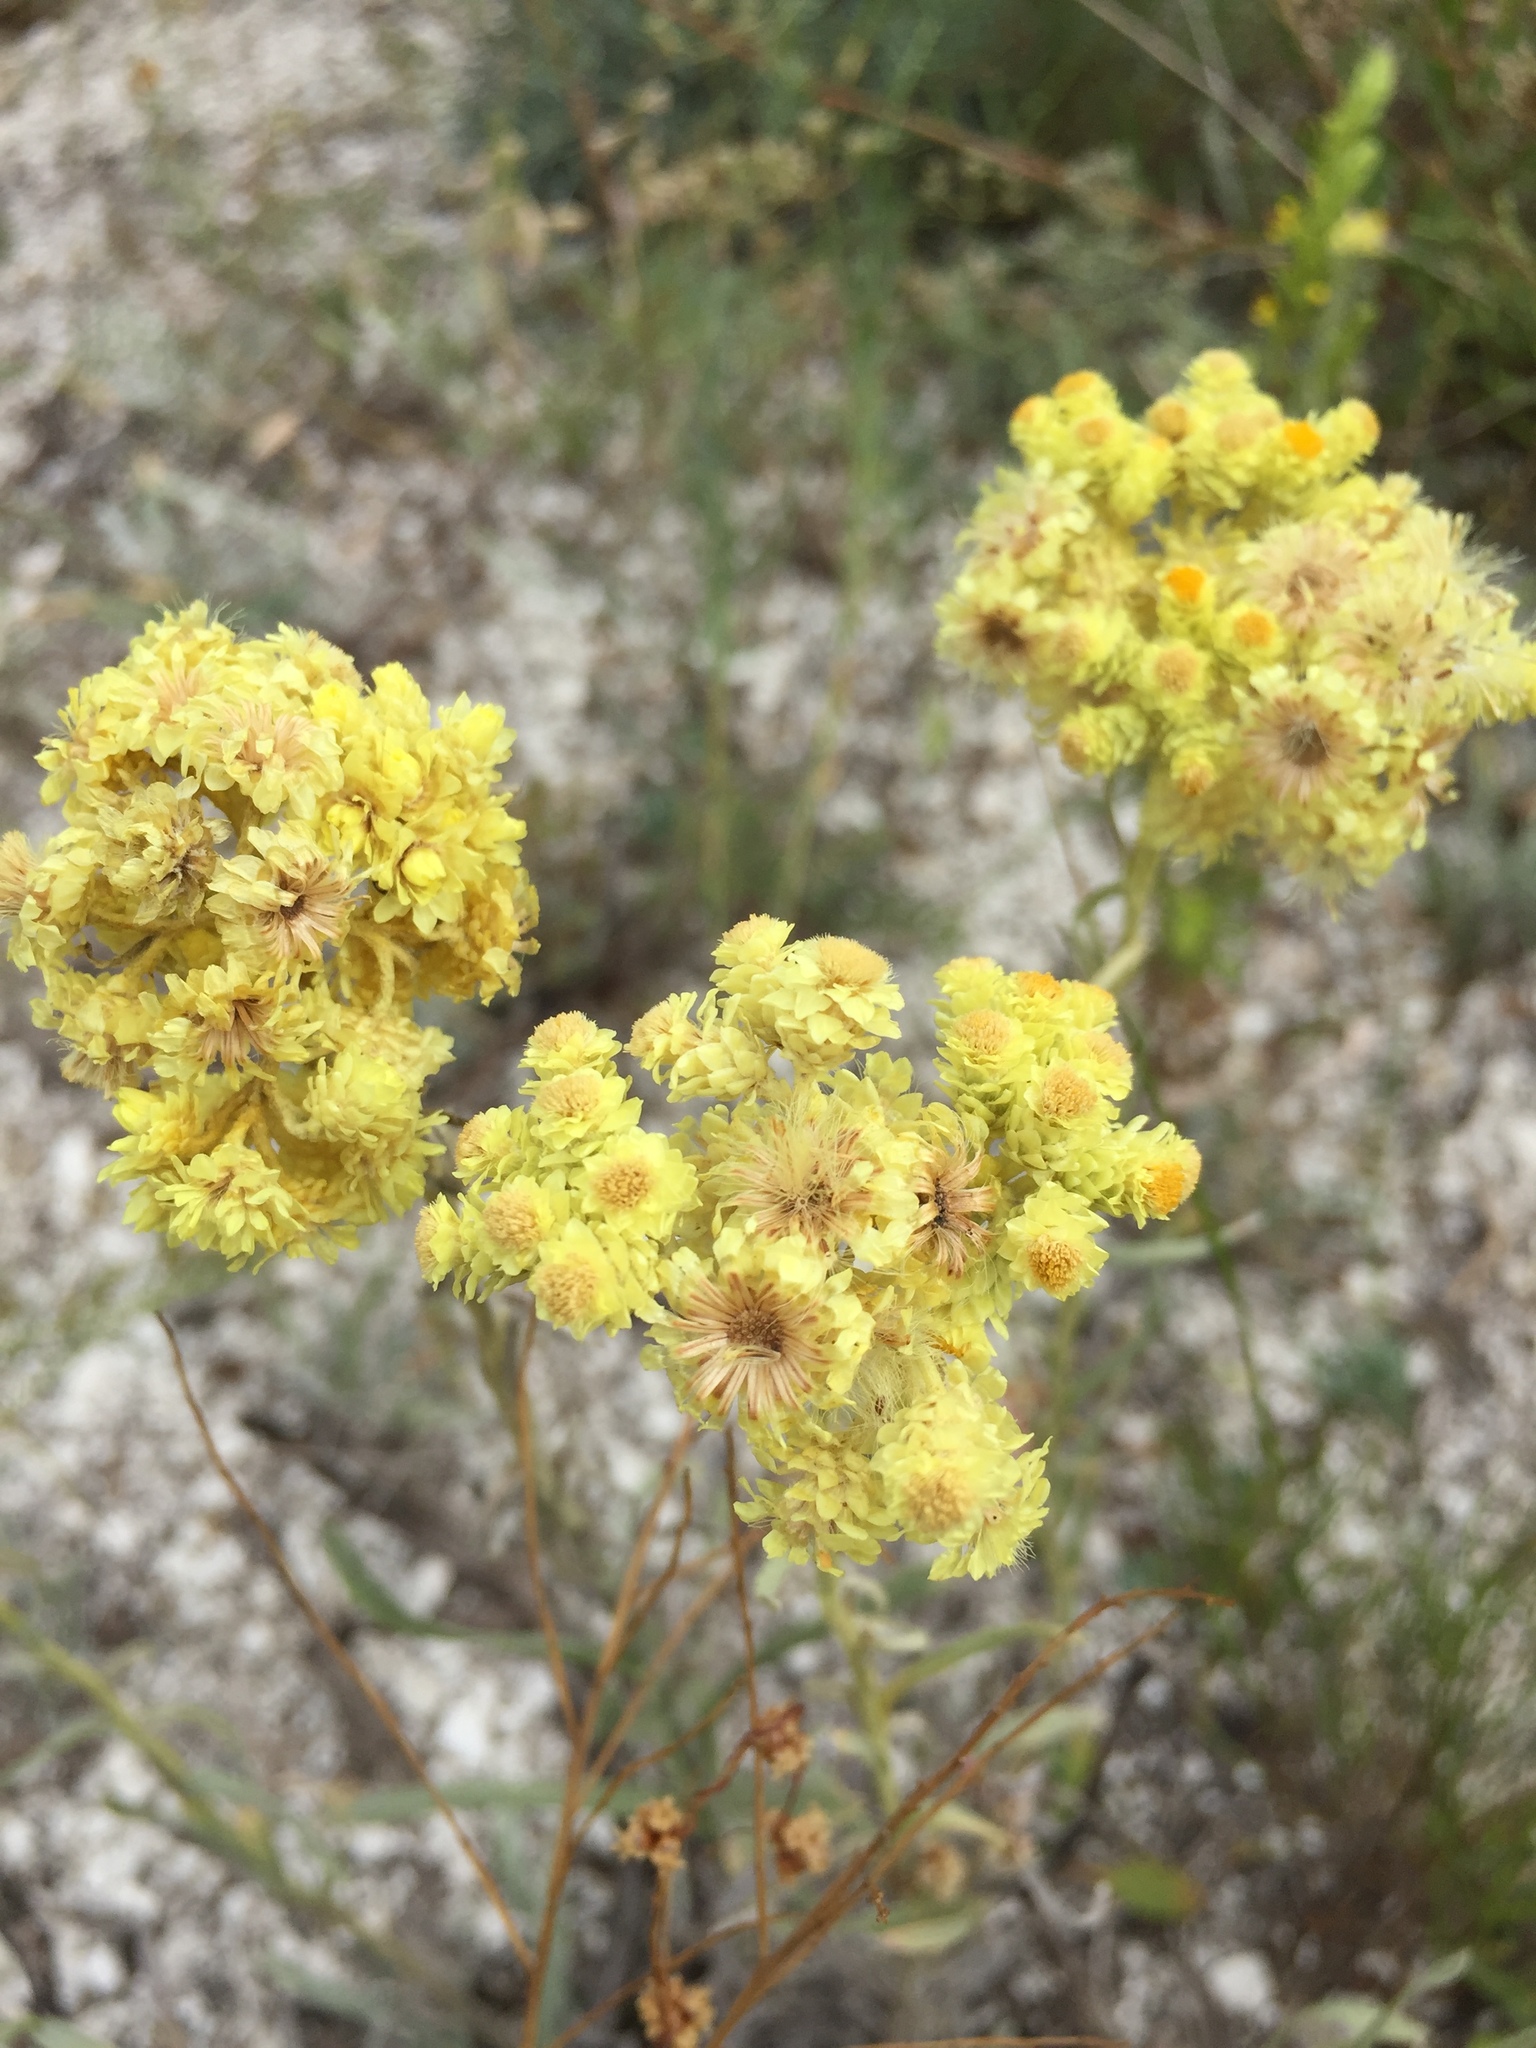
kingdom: Plantae
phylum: Tracheophyta
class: Magnoliopsida
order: Asterales
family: Asteraceae
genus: Helichrysum
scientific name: Helichrysum arenarium
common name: Strawflower
